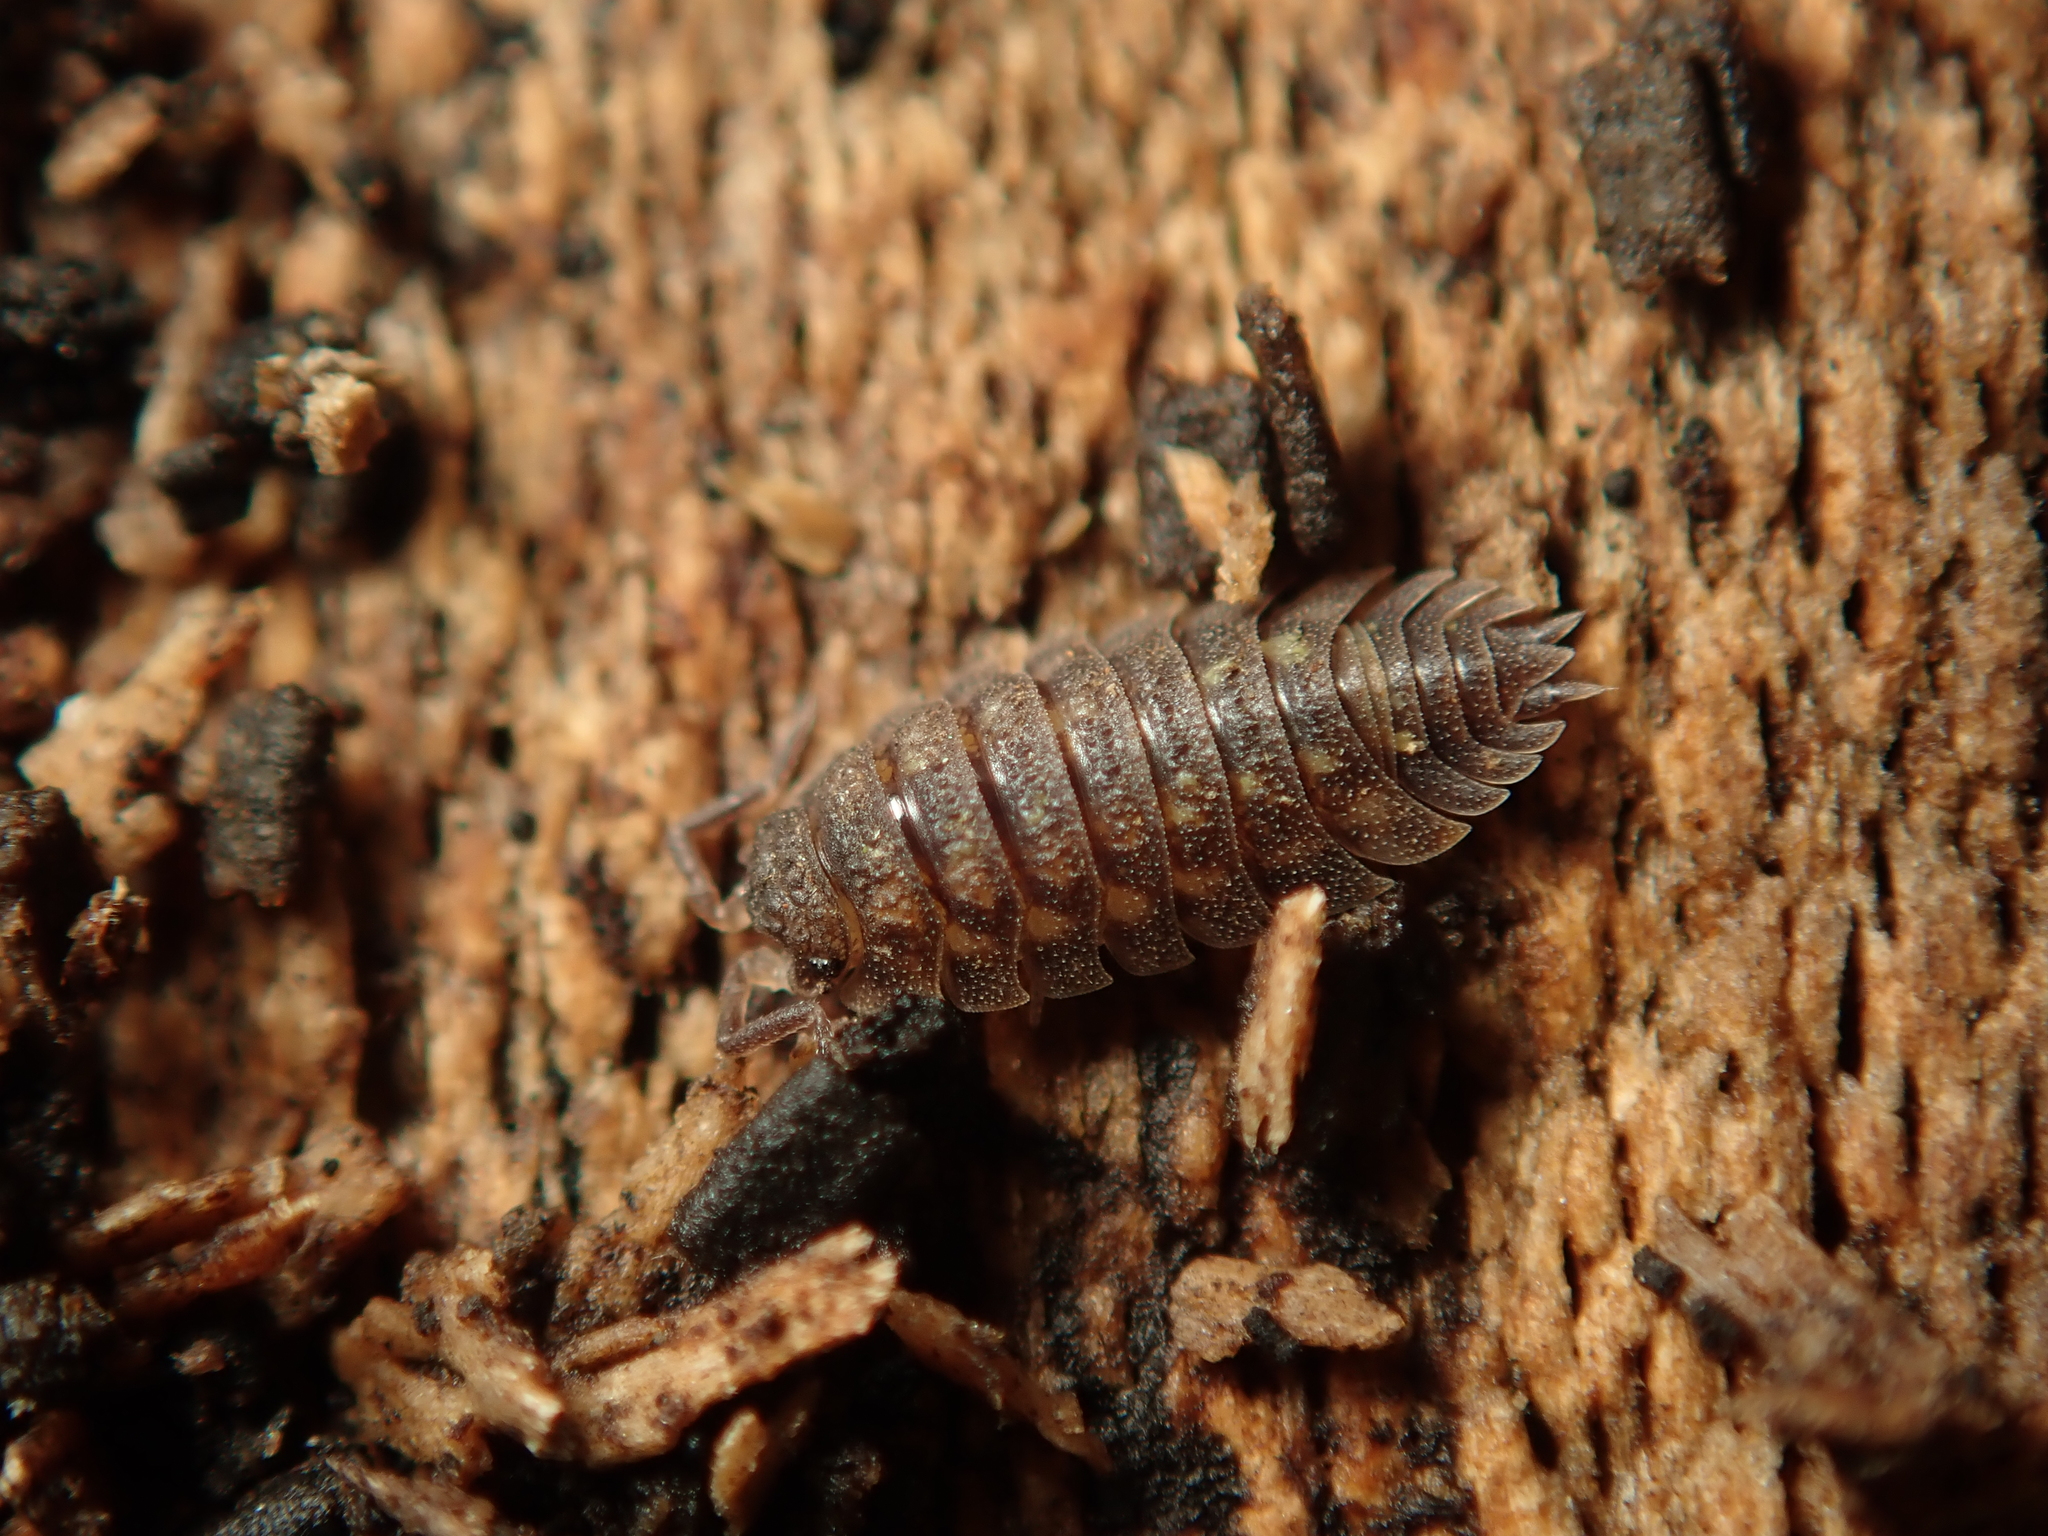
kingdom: Animalia
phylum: Arthropoda
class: Malacostraca
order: Isopoda
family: Oniscidae
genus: Oniscus
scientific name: Oniscus asellus
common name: Common shiny woodlouse
